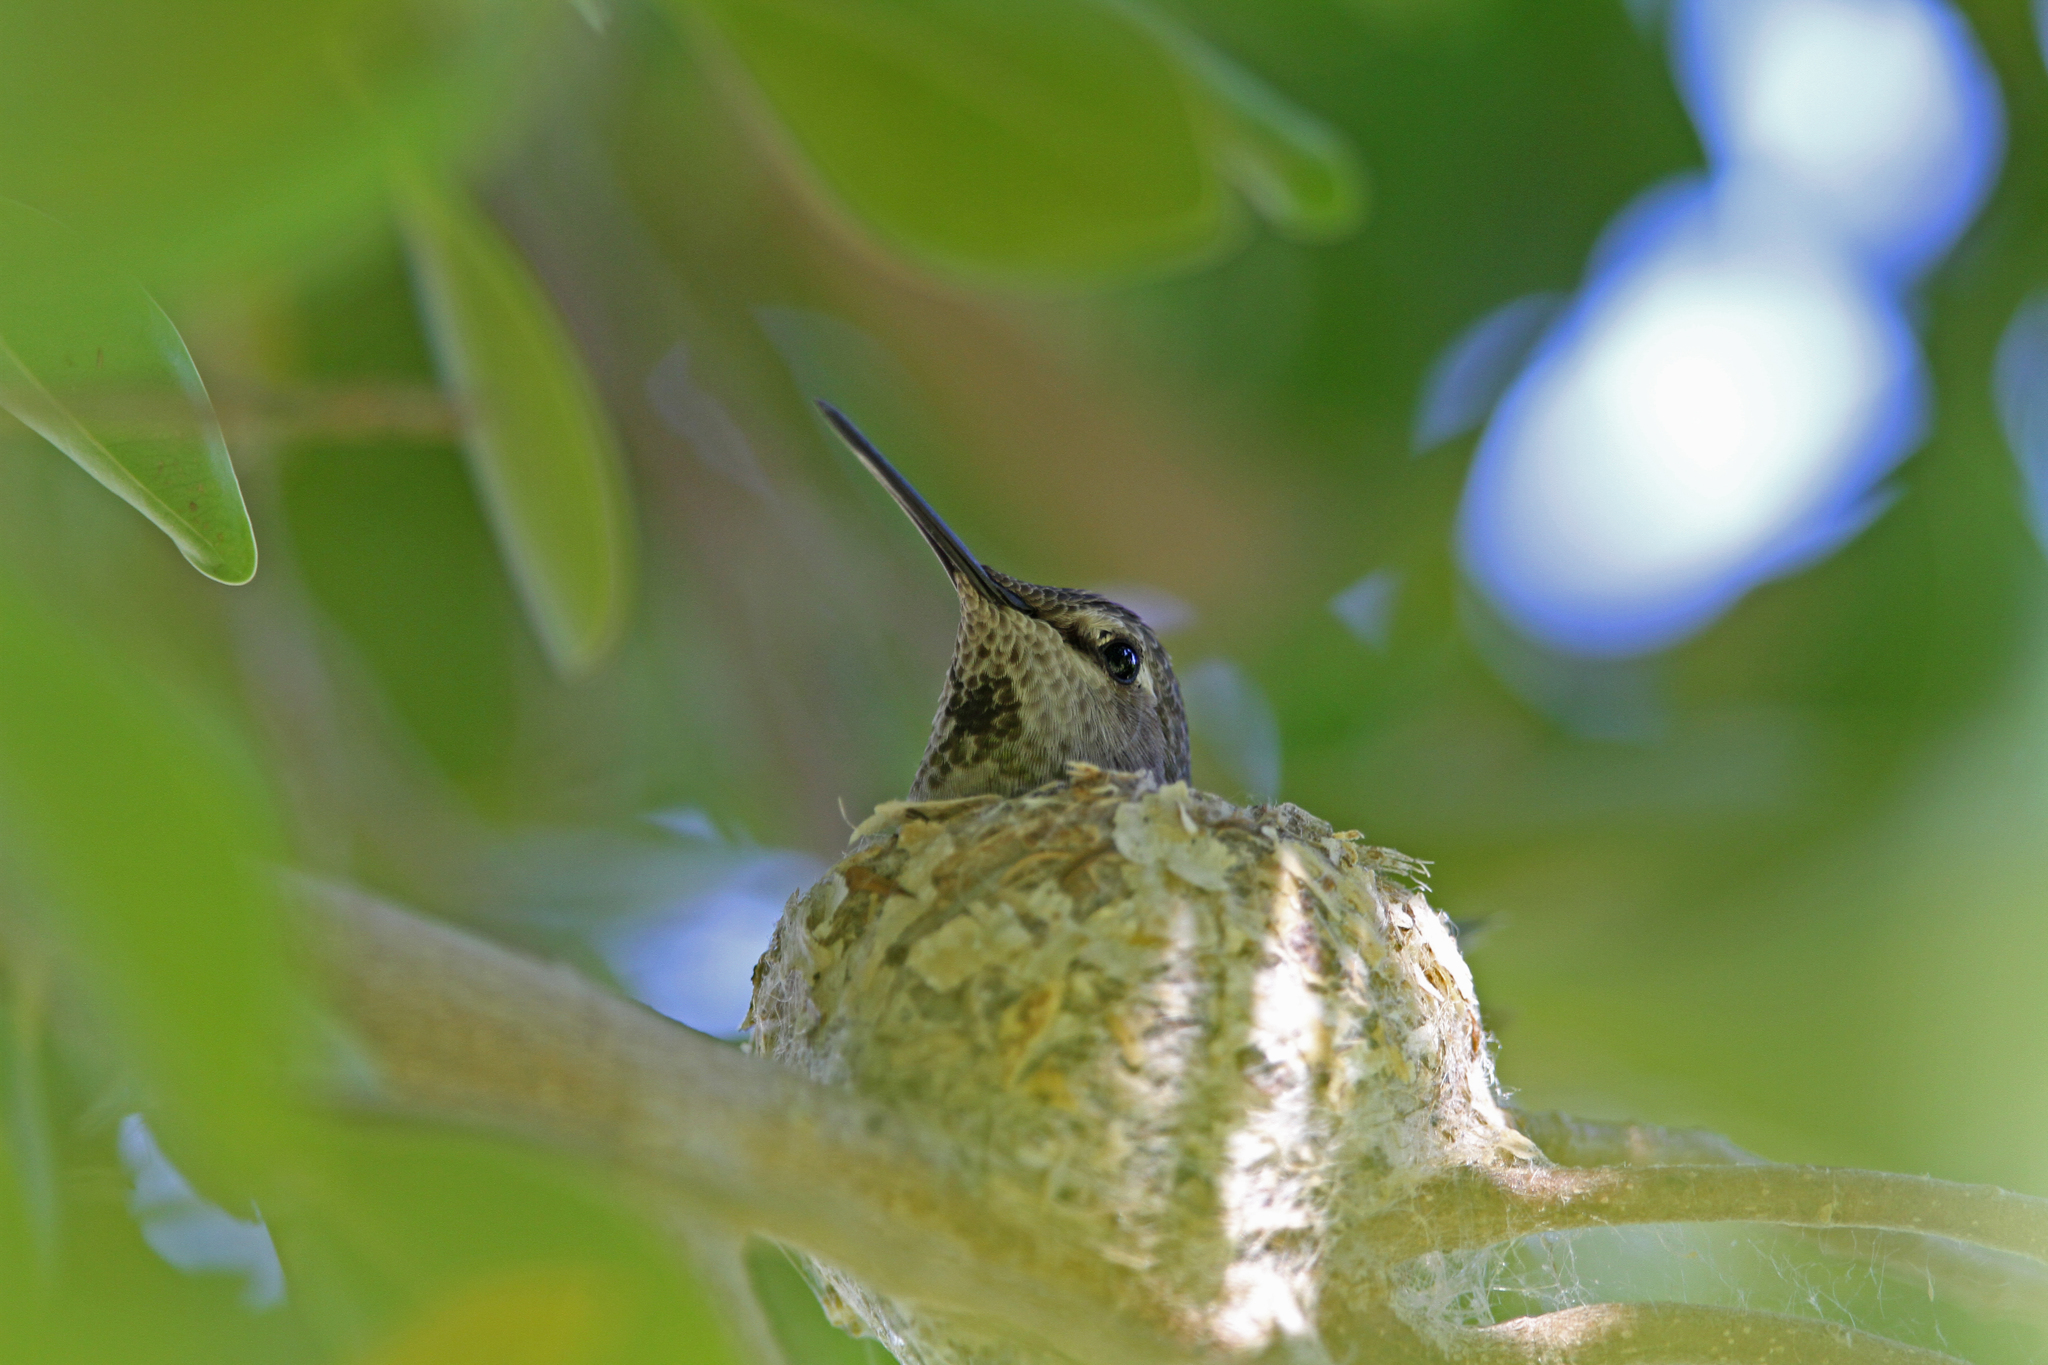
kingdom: Animalia
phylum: Chordata
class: Aves
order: Apodiformes
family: Trochilidae
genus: Calypte
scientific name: Calypte anna
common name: Anna's hummingbird
